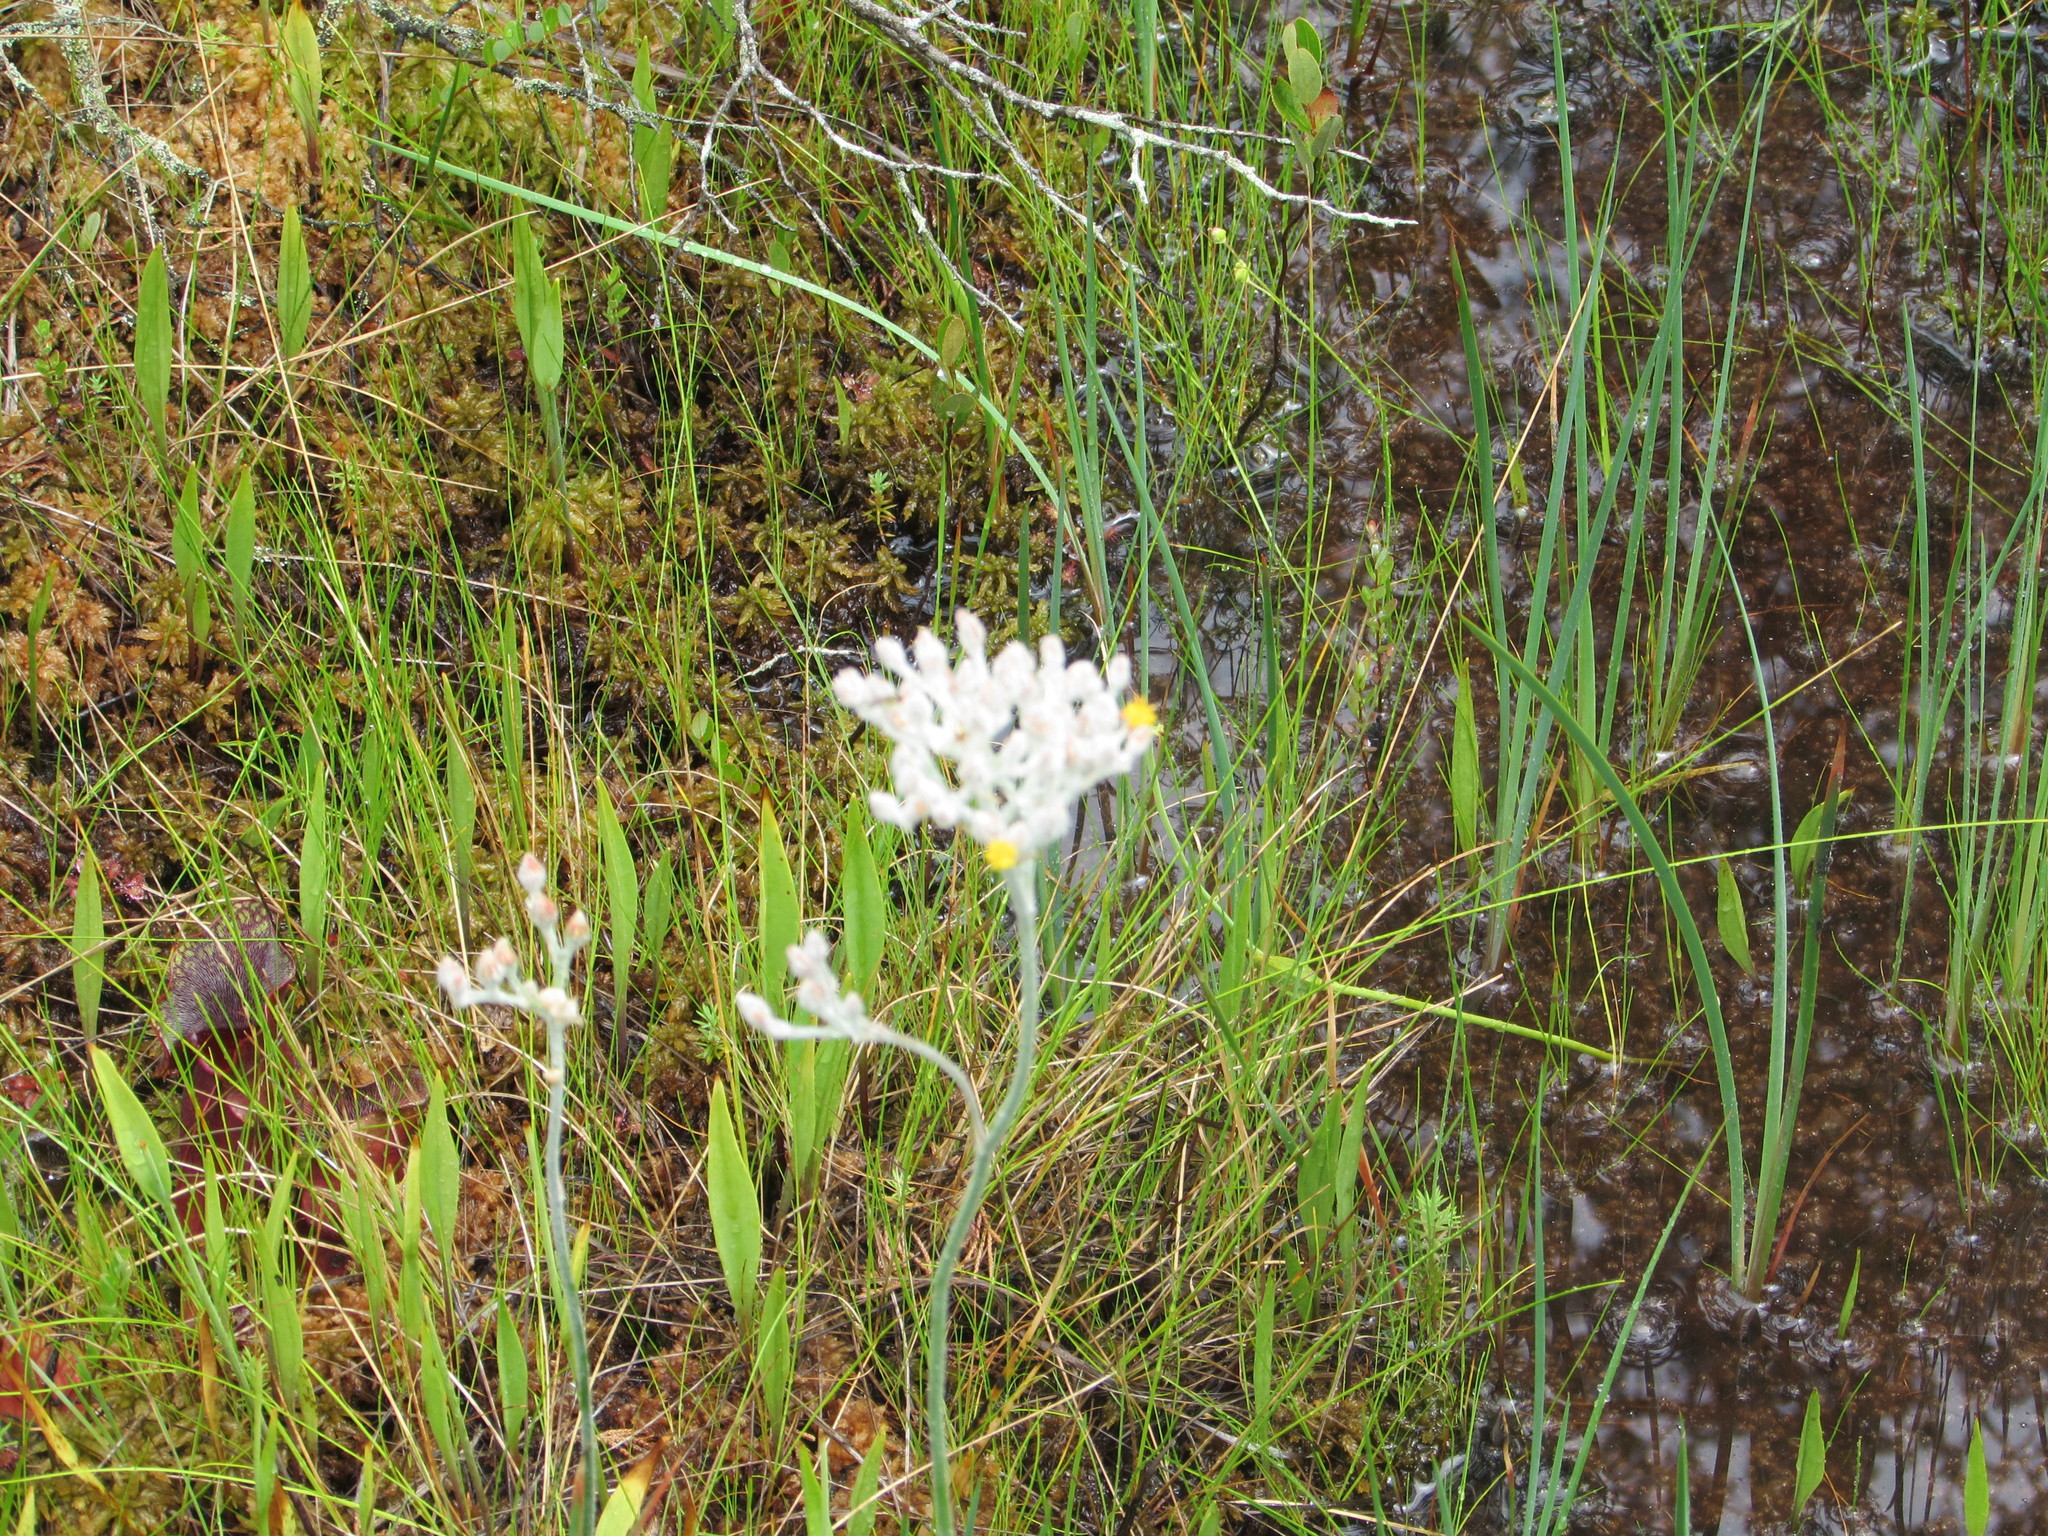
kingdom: Plantae
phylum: Tracheophyta
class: Liliopsida
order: Dioscoreales
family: Nartheciaceae
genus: Lophiola
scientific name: Lophiola aurea
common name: Golden-crest
